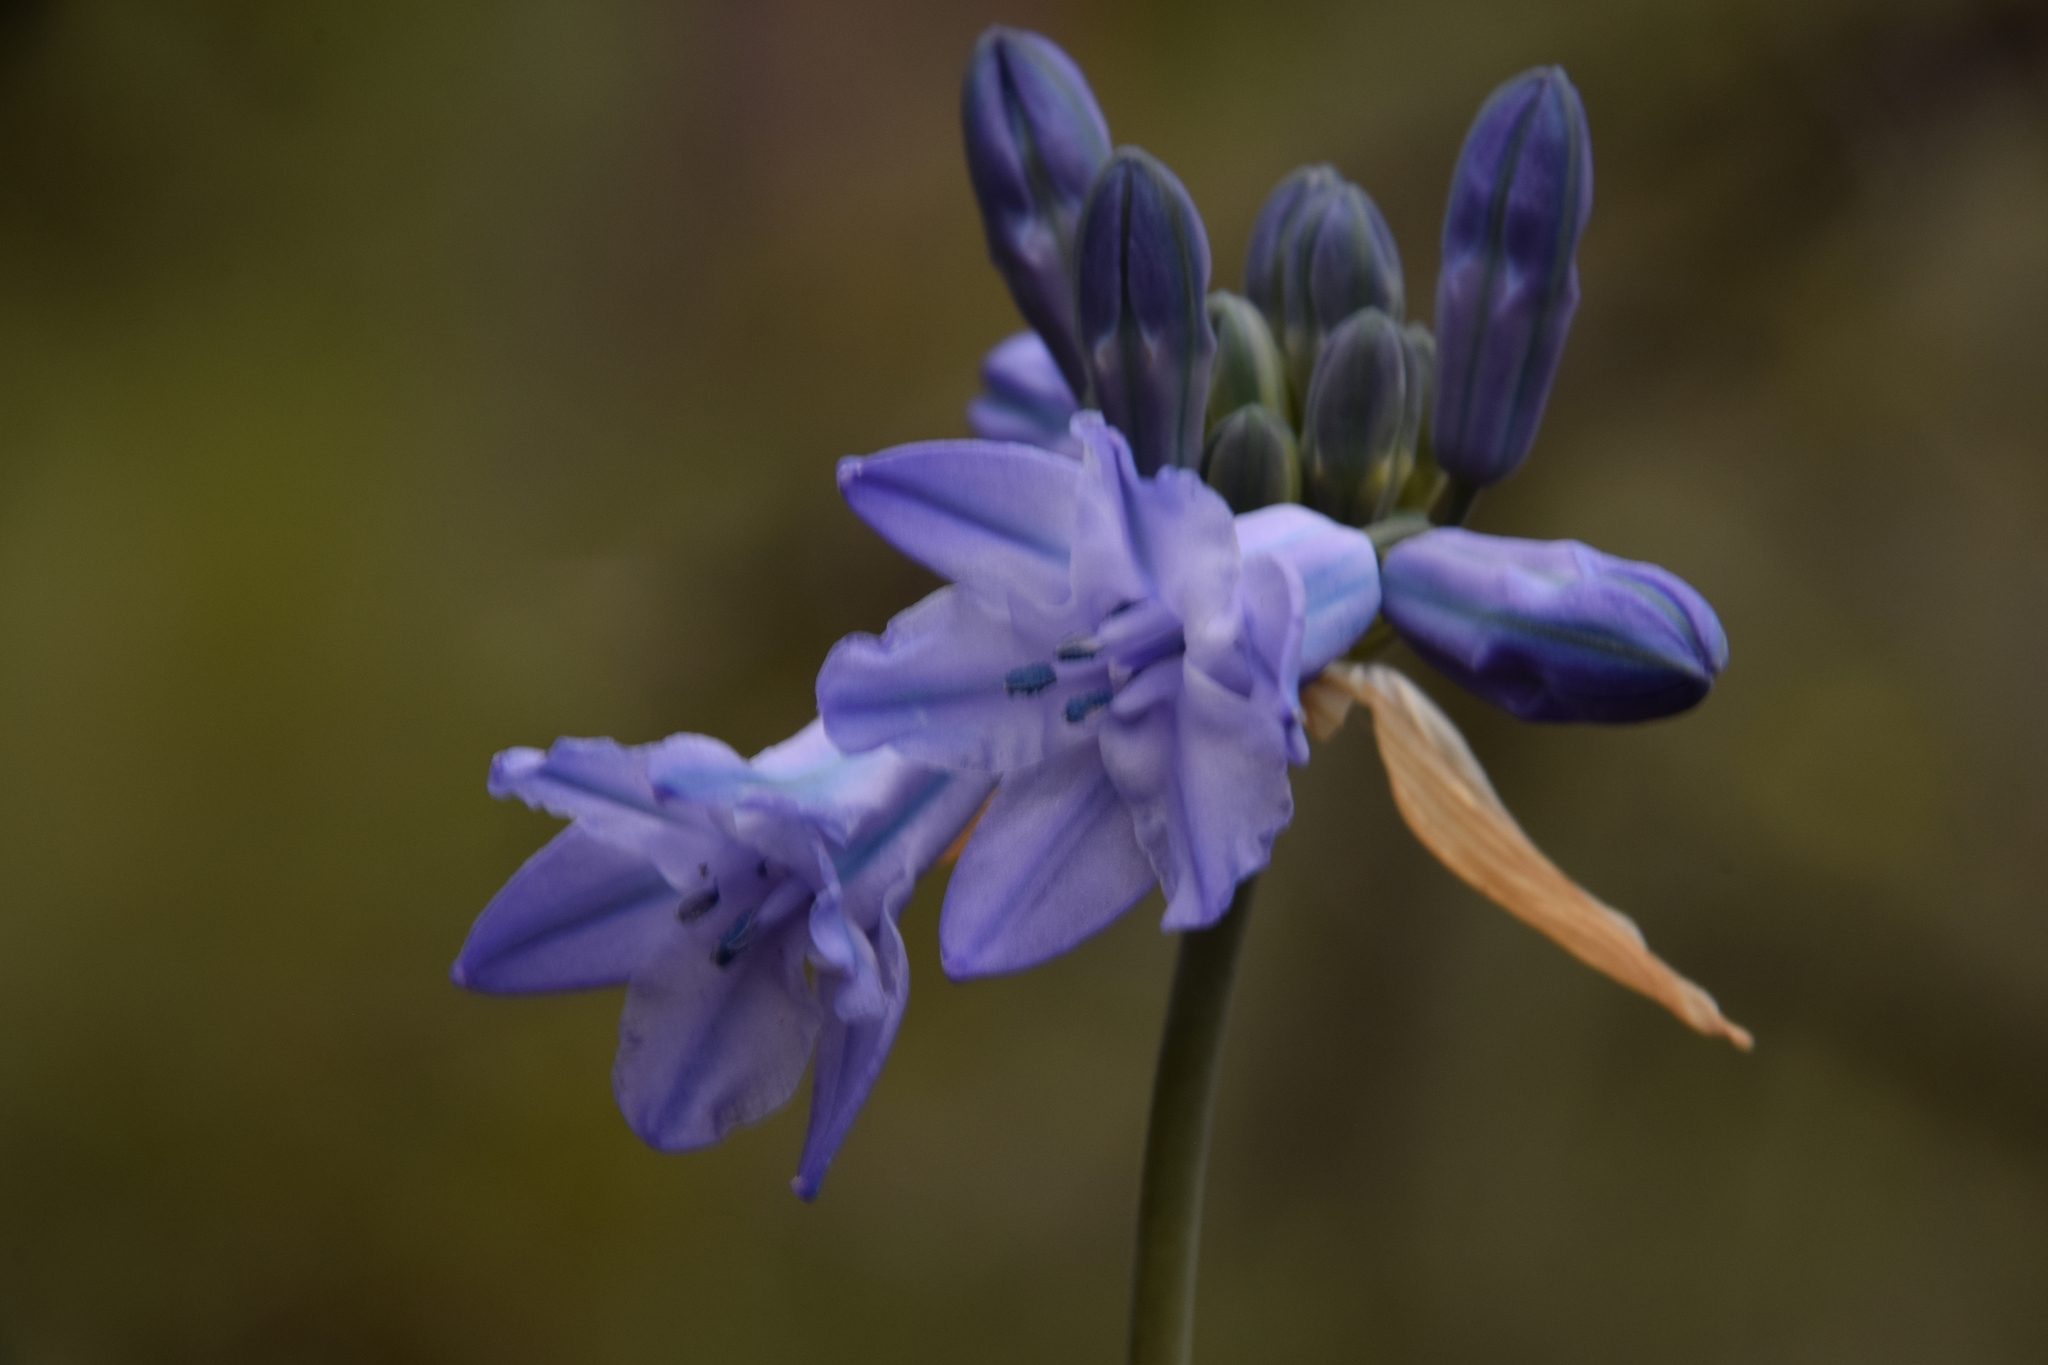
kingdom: Plantae
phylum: Tracheophyta
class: Liliopsida
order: Asparagales
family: Asparagaceae
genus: Triteleia
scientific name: Triteleia grandiflora
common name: Wild hyacinth
